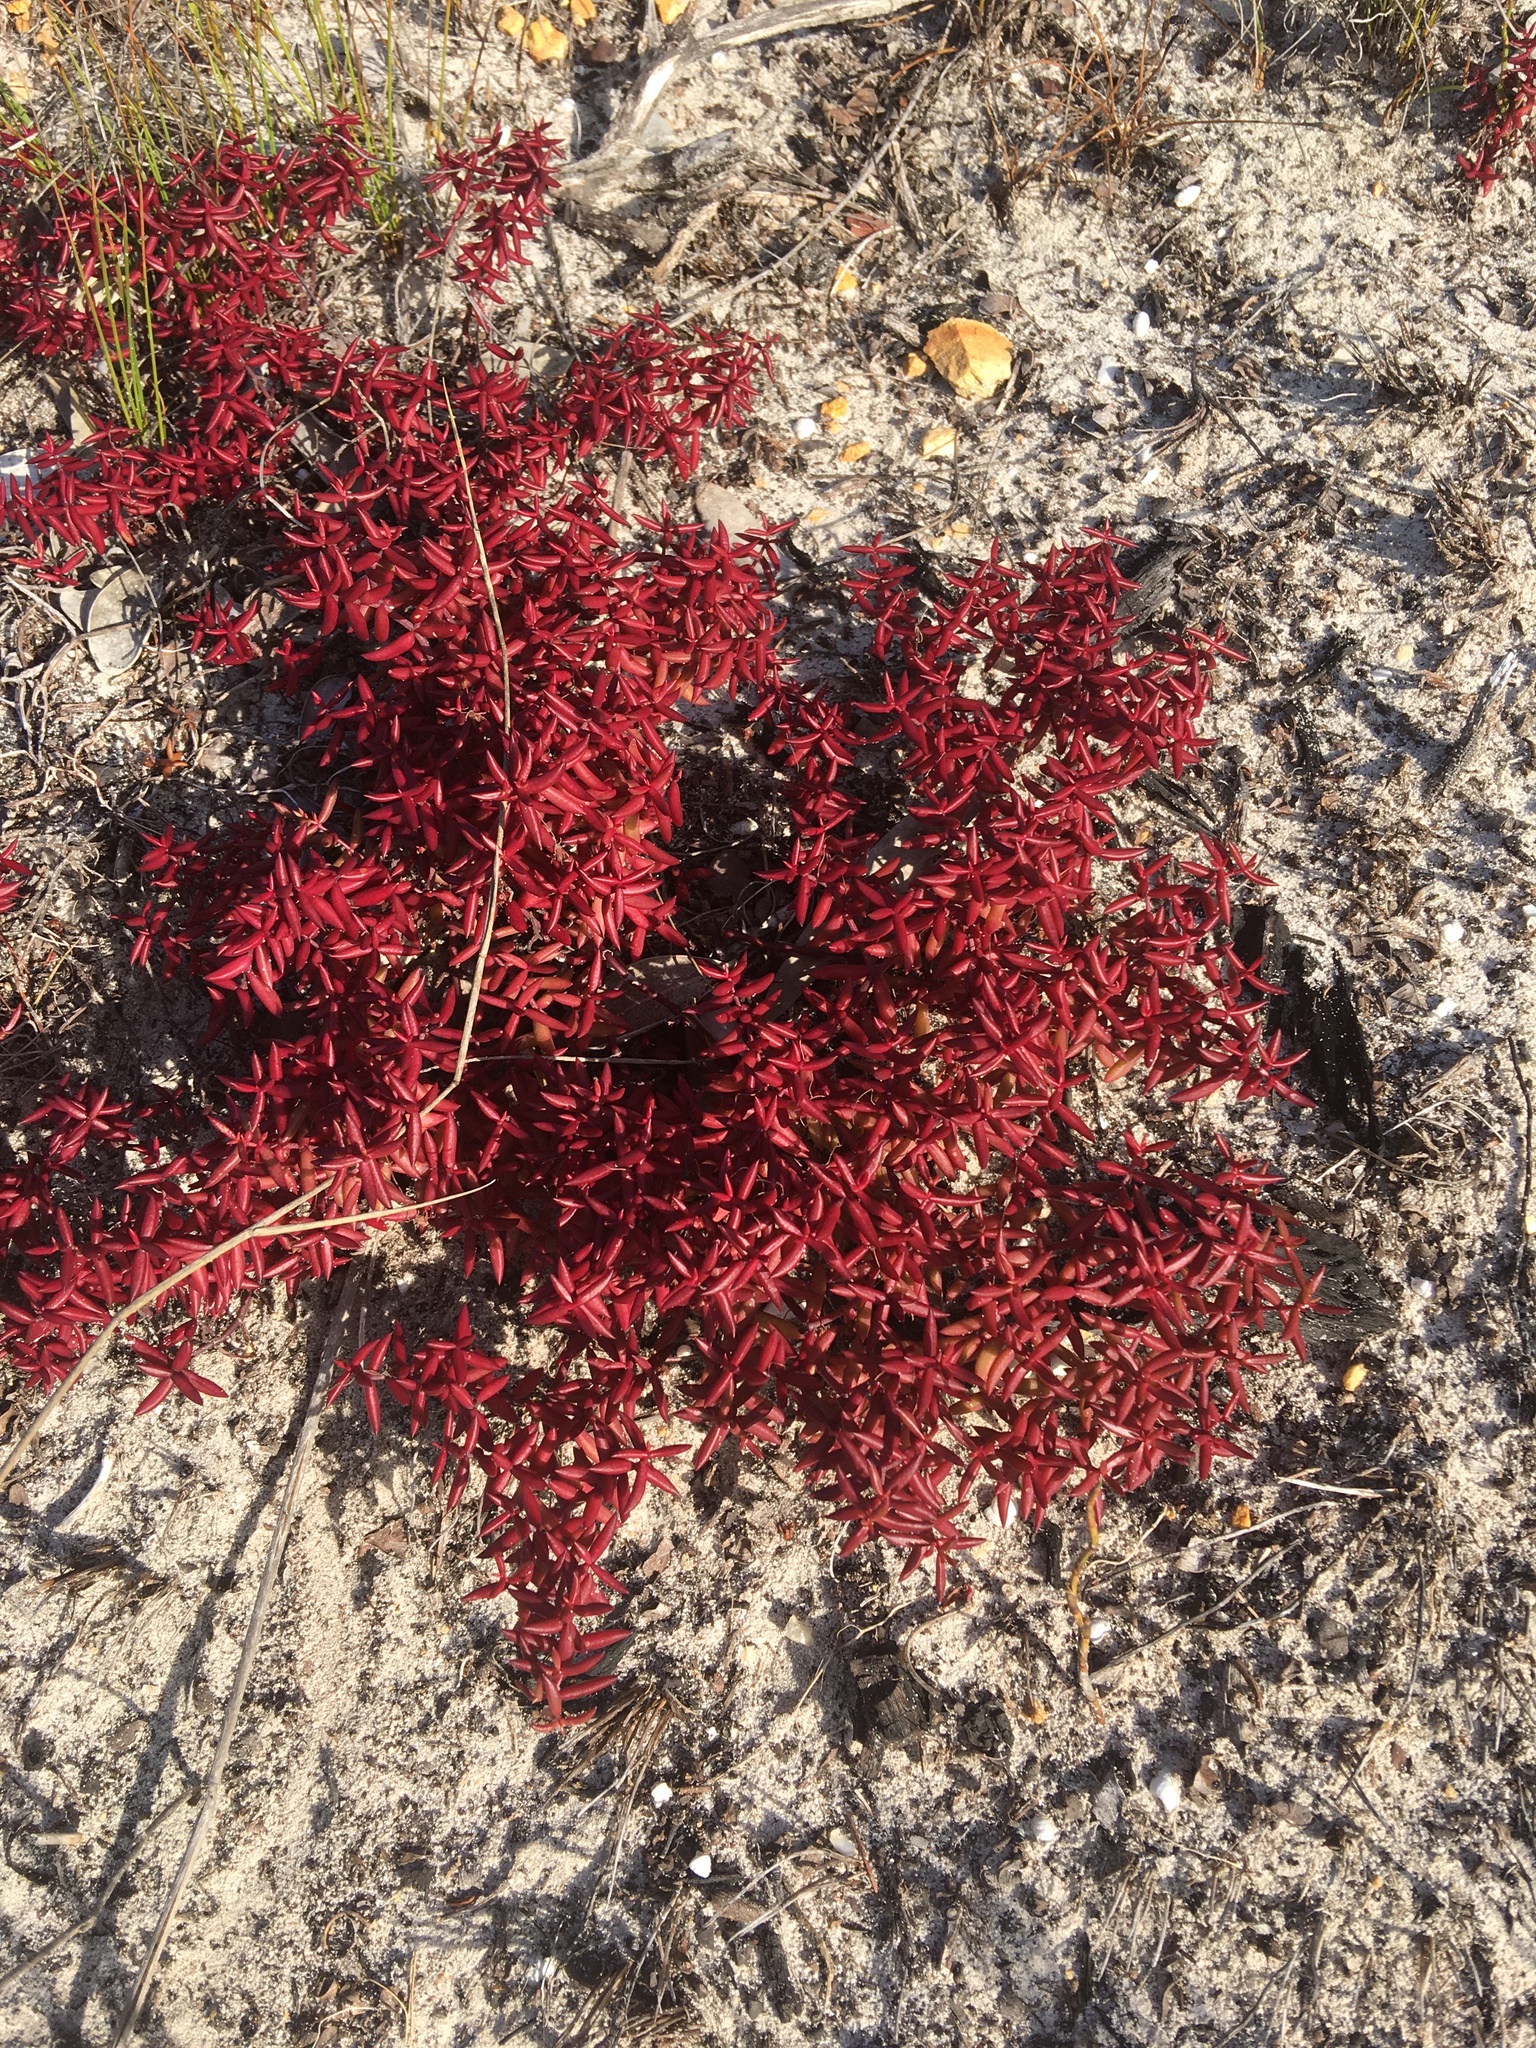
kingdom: Plantae
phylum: Tracheophyta
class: Magnoliopsida
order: Saxifragales
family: Crassulaceae
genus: Crassula
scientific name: Crassula expansa
